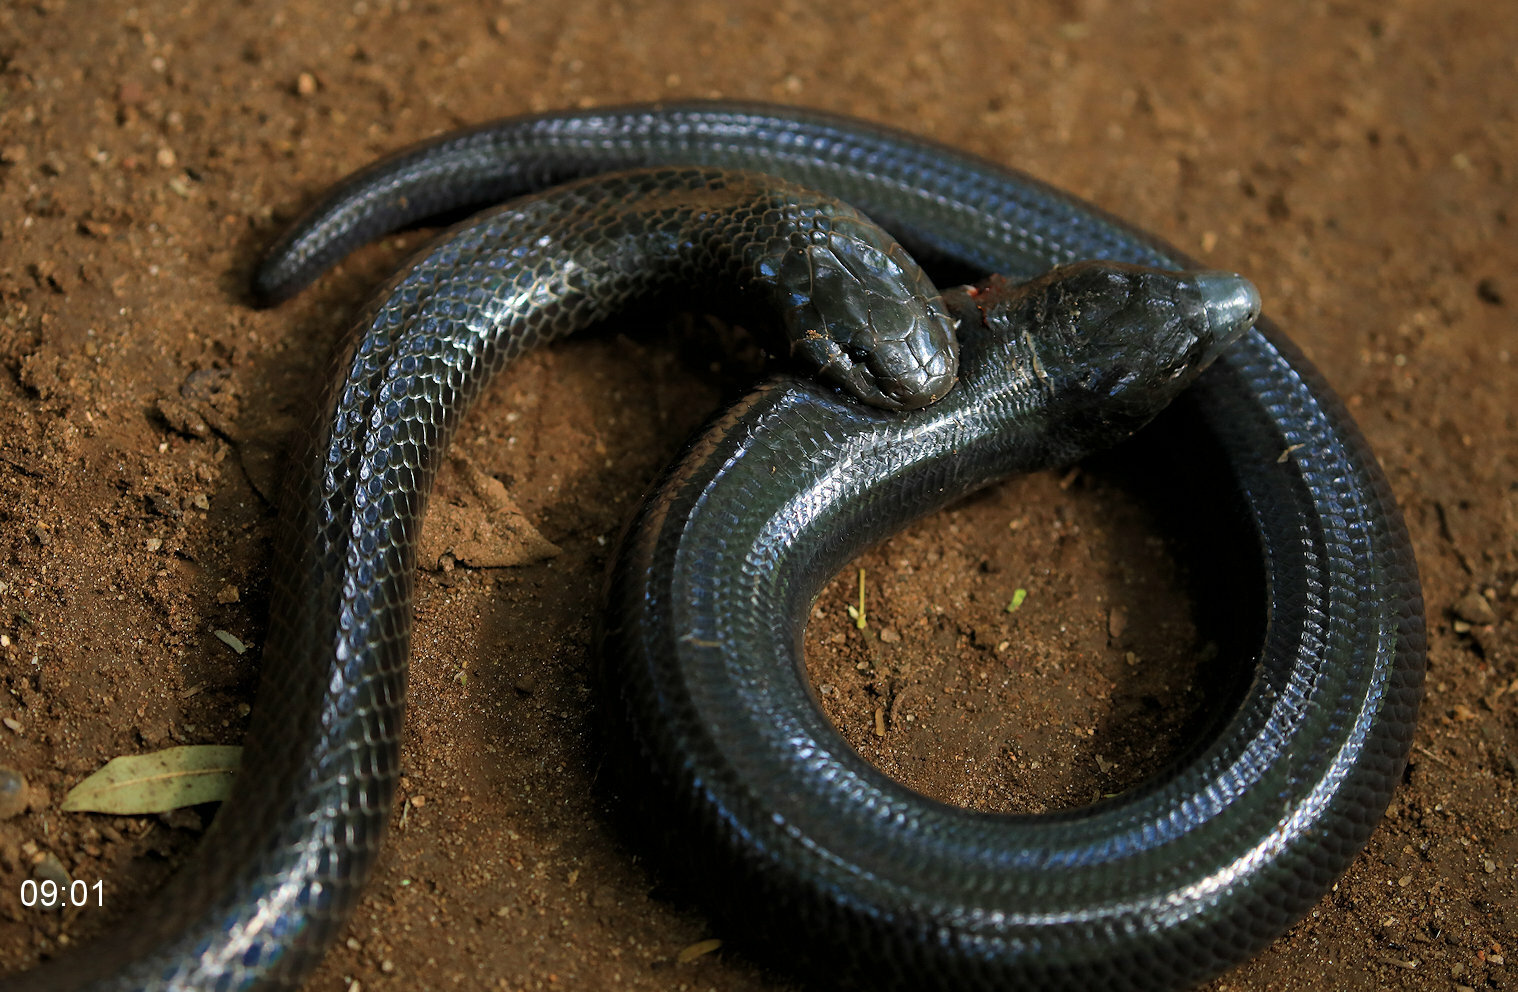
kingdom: Animalia
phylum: Chordata
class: Squamata
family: Scincidae
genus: Acontias
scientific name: Acontias plumbeus
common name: Giant lance skink
